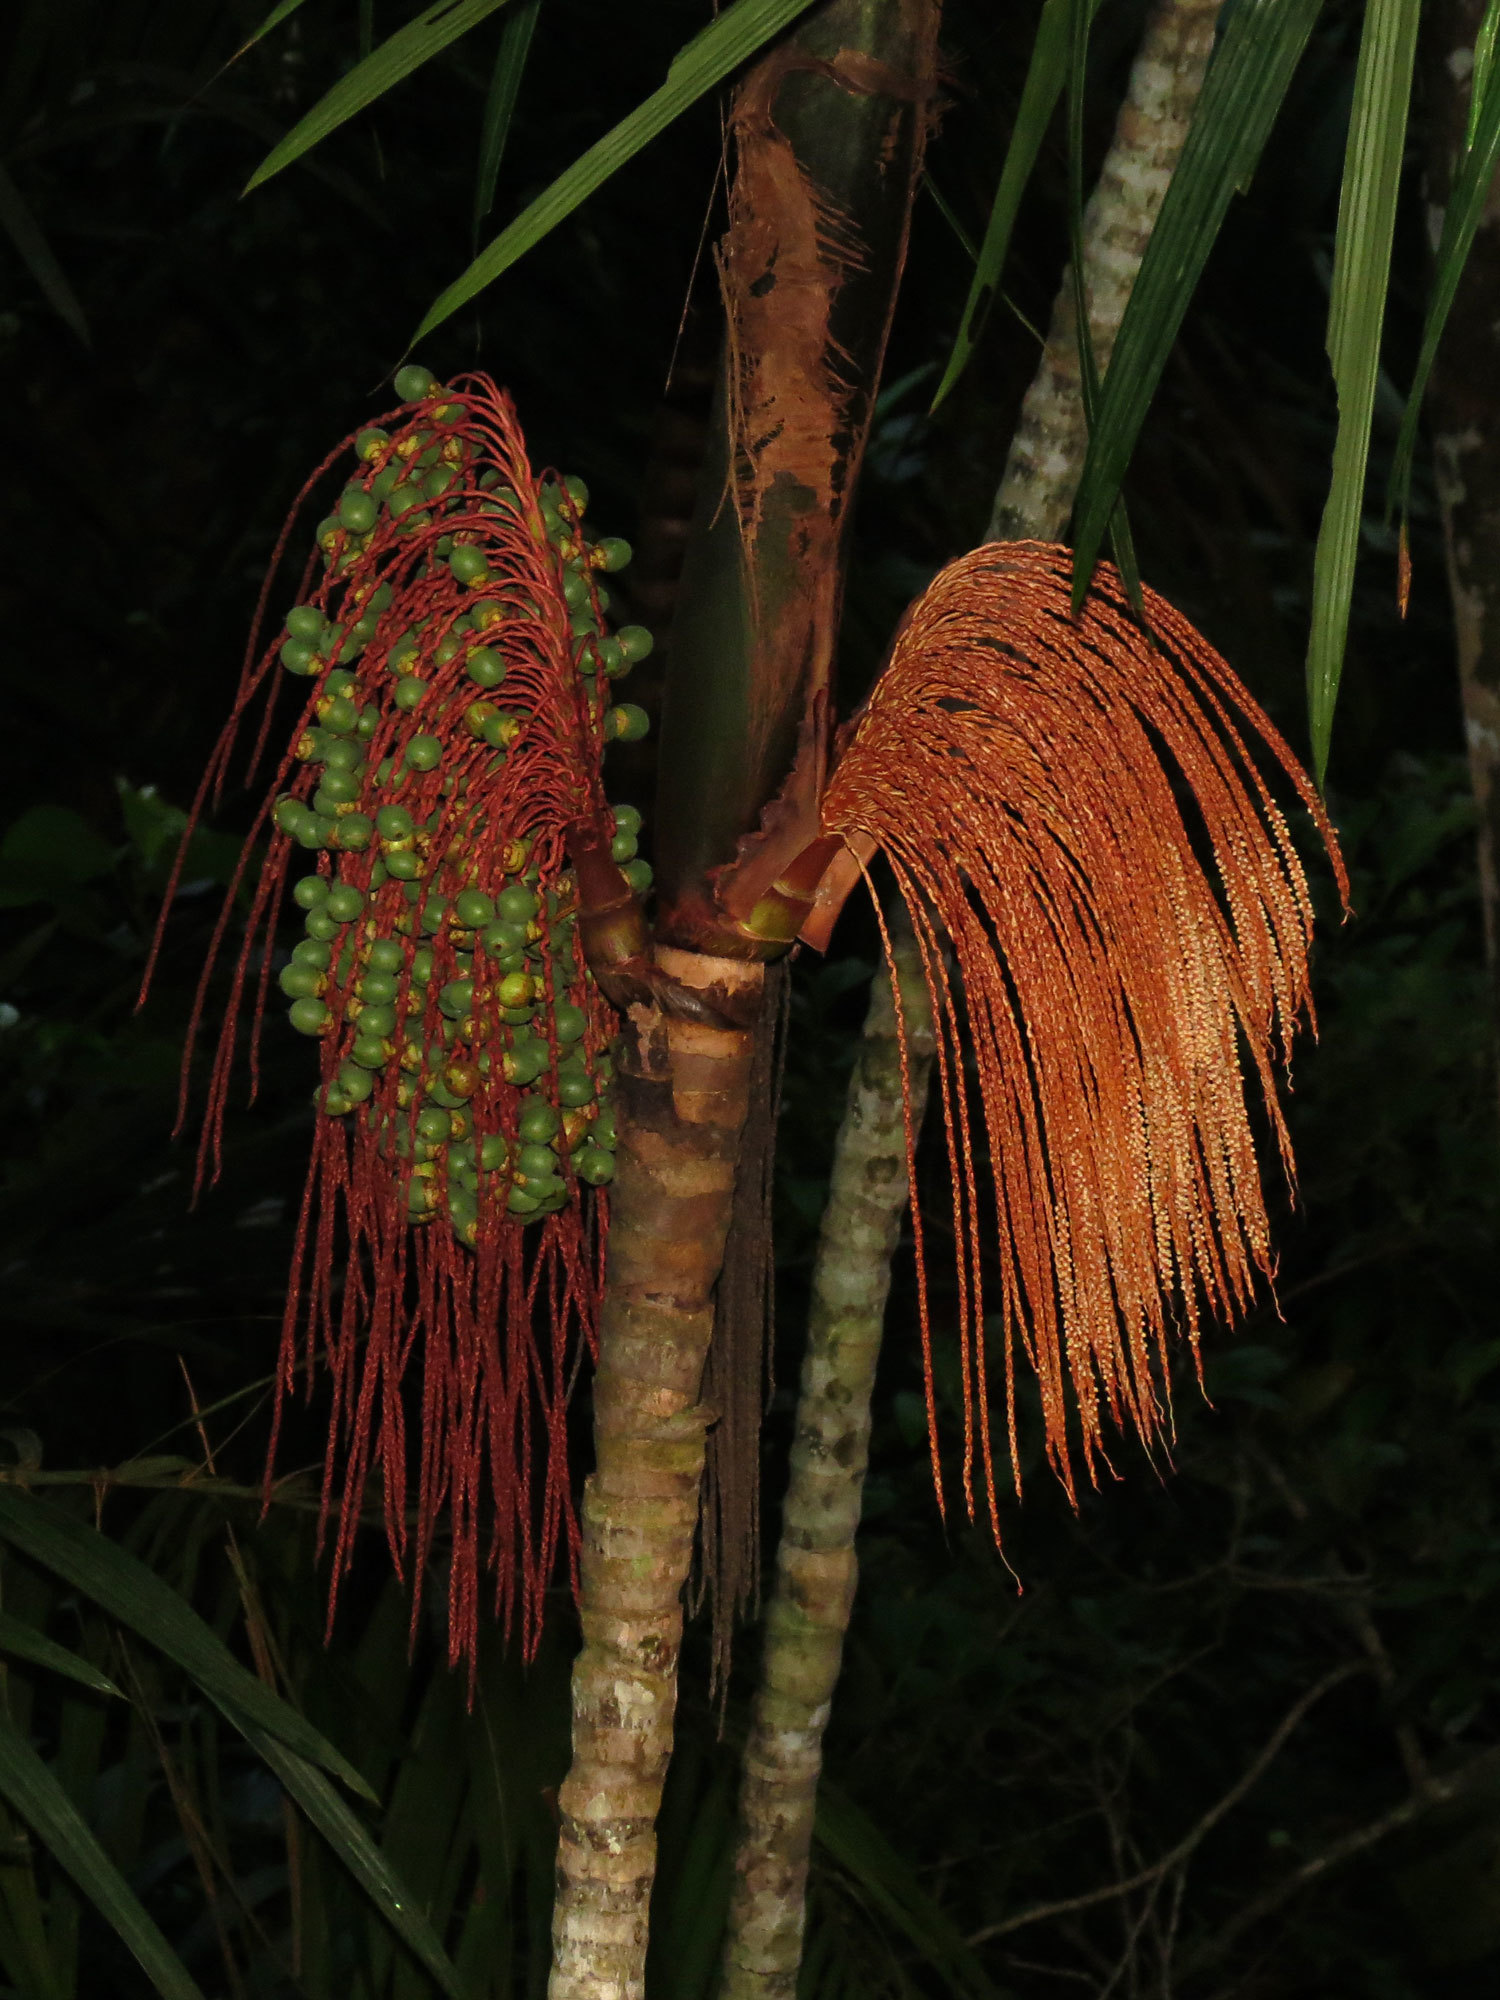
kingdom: Plantae
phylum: Tracheophyta
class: Liliopsida
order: Arecales
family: Arecaceae
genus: Oenocarpus
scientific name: Oenocarpus mapora
